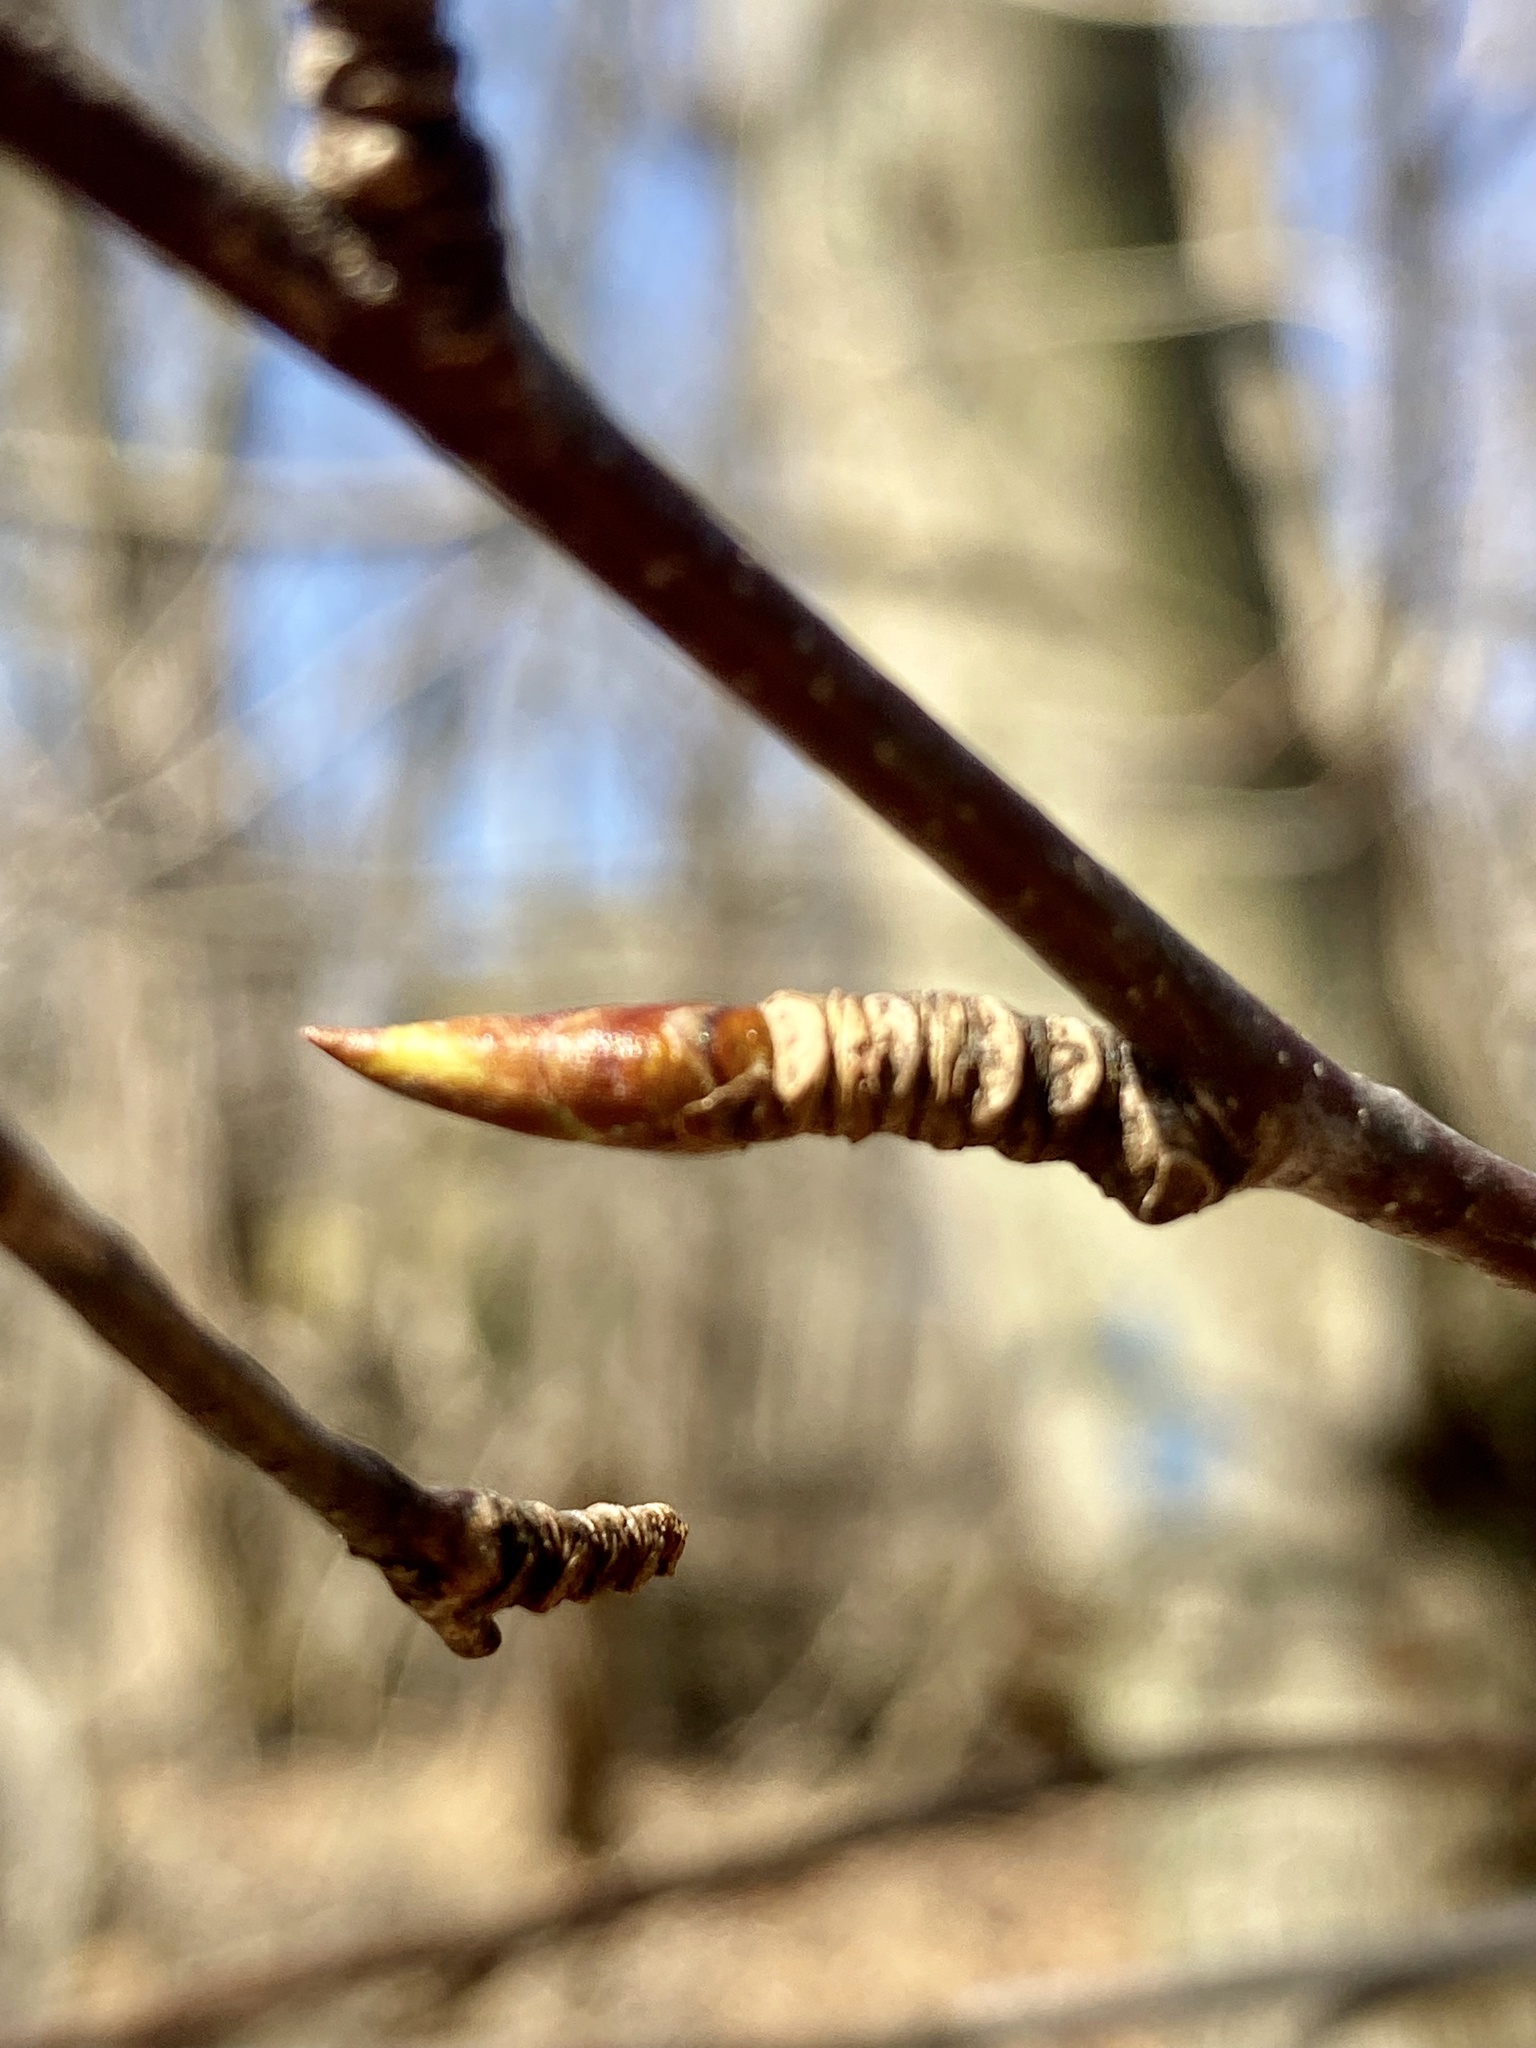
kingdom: Plantae
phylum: Tracheophyta
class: Magnoliopsida
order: Fagales
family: Betulaceae
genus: Betula
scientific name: Betula lenta
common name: Black birch
